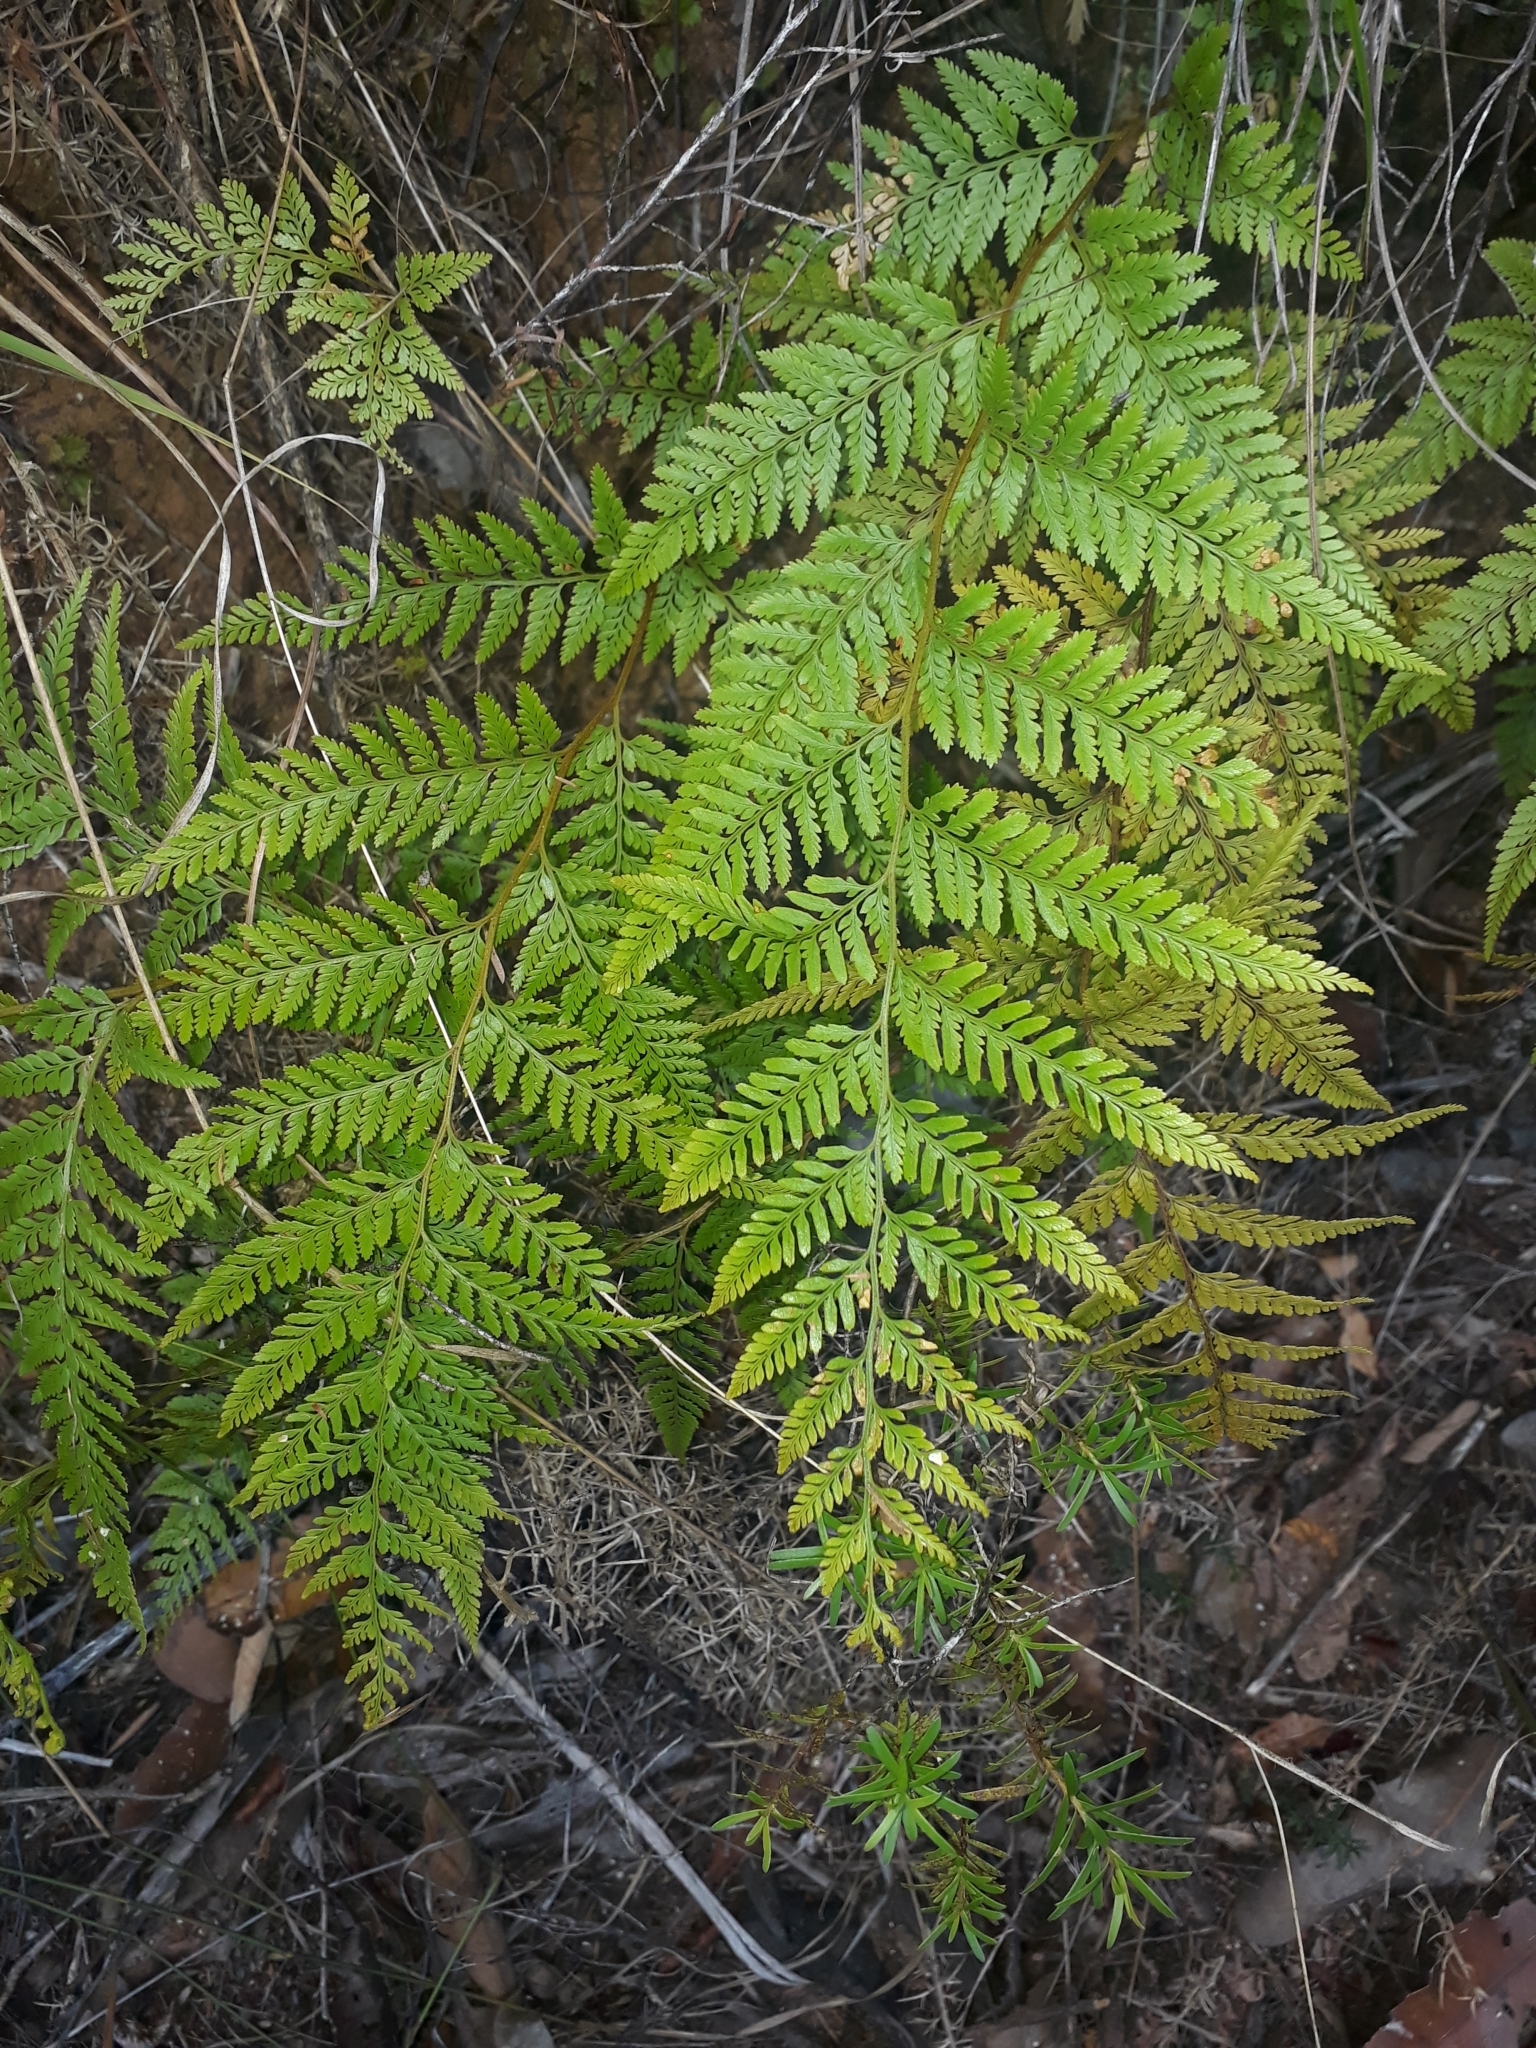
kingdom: Plantae
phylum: Tracheophyta
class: Polypodiopsida
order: Polypodiales
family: Dennstaedtiaceae
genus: Paesia
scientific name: Paesia scaberula
